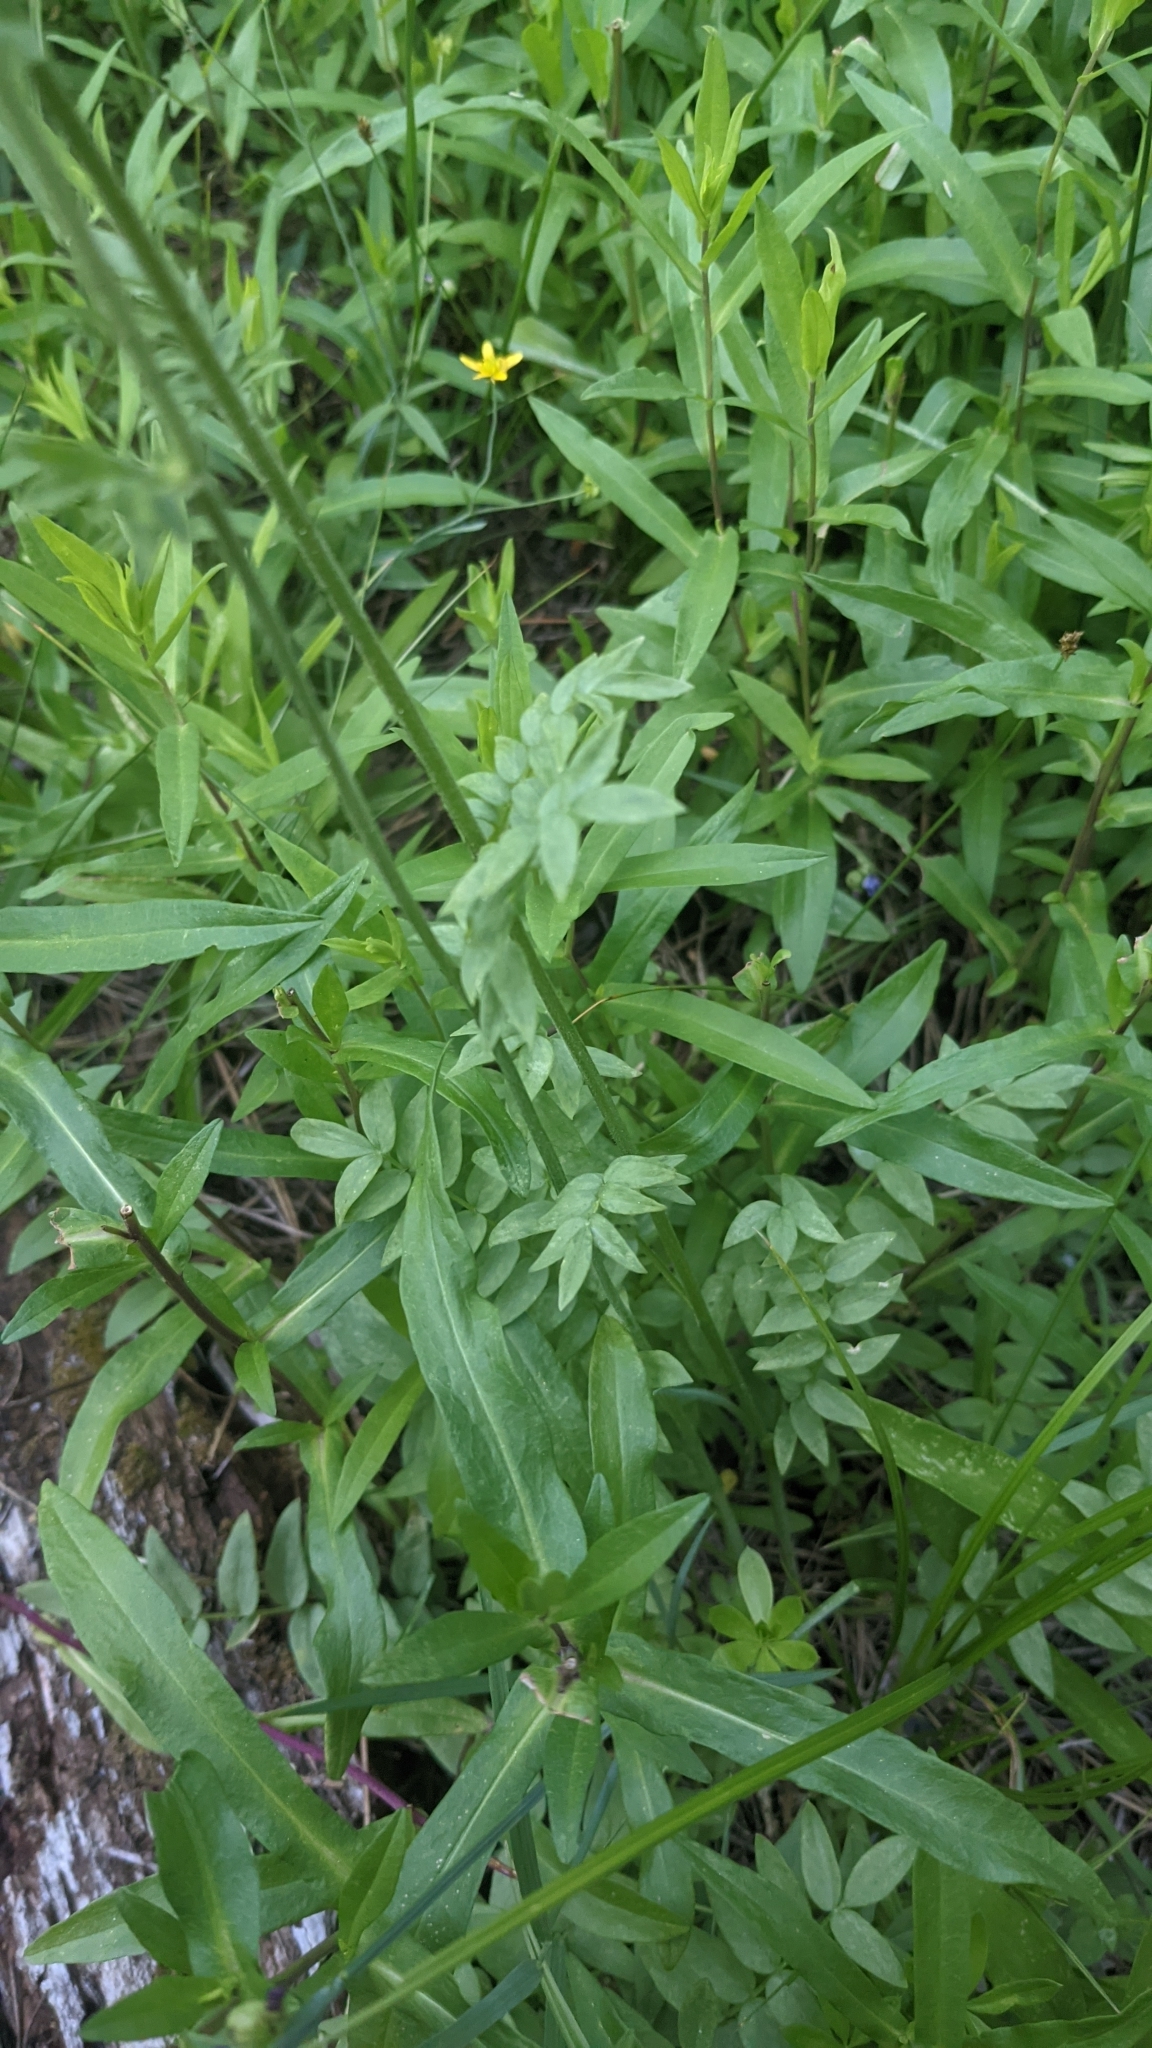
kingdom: Plantae
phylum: Tracheophyta
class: Magnoliopsida
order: Ericales
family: Polemoniaceae
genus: Polemonium
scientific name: Polemonium occidentale
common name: Western jacob's-ladder
